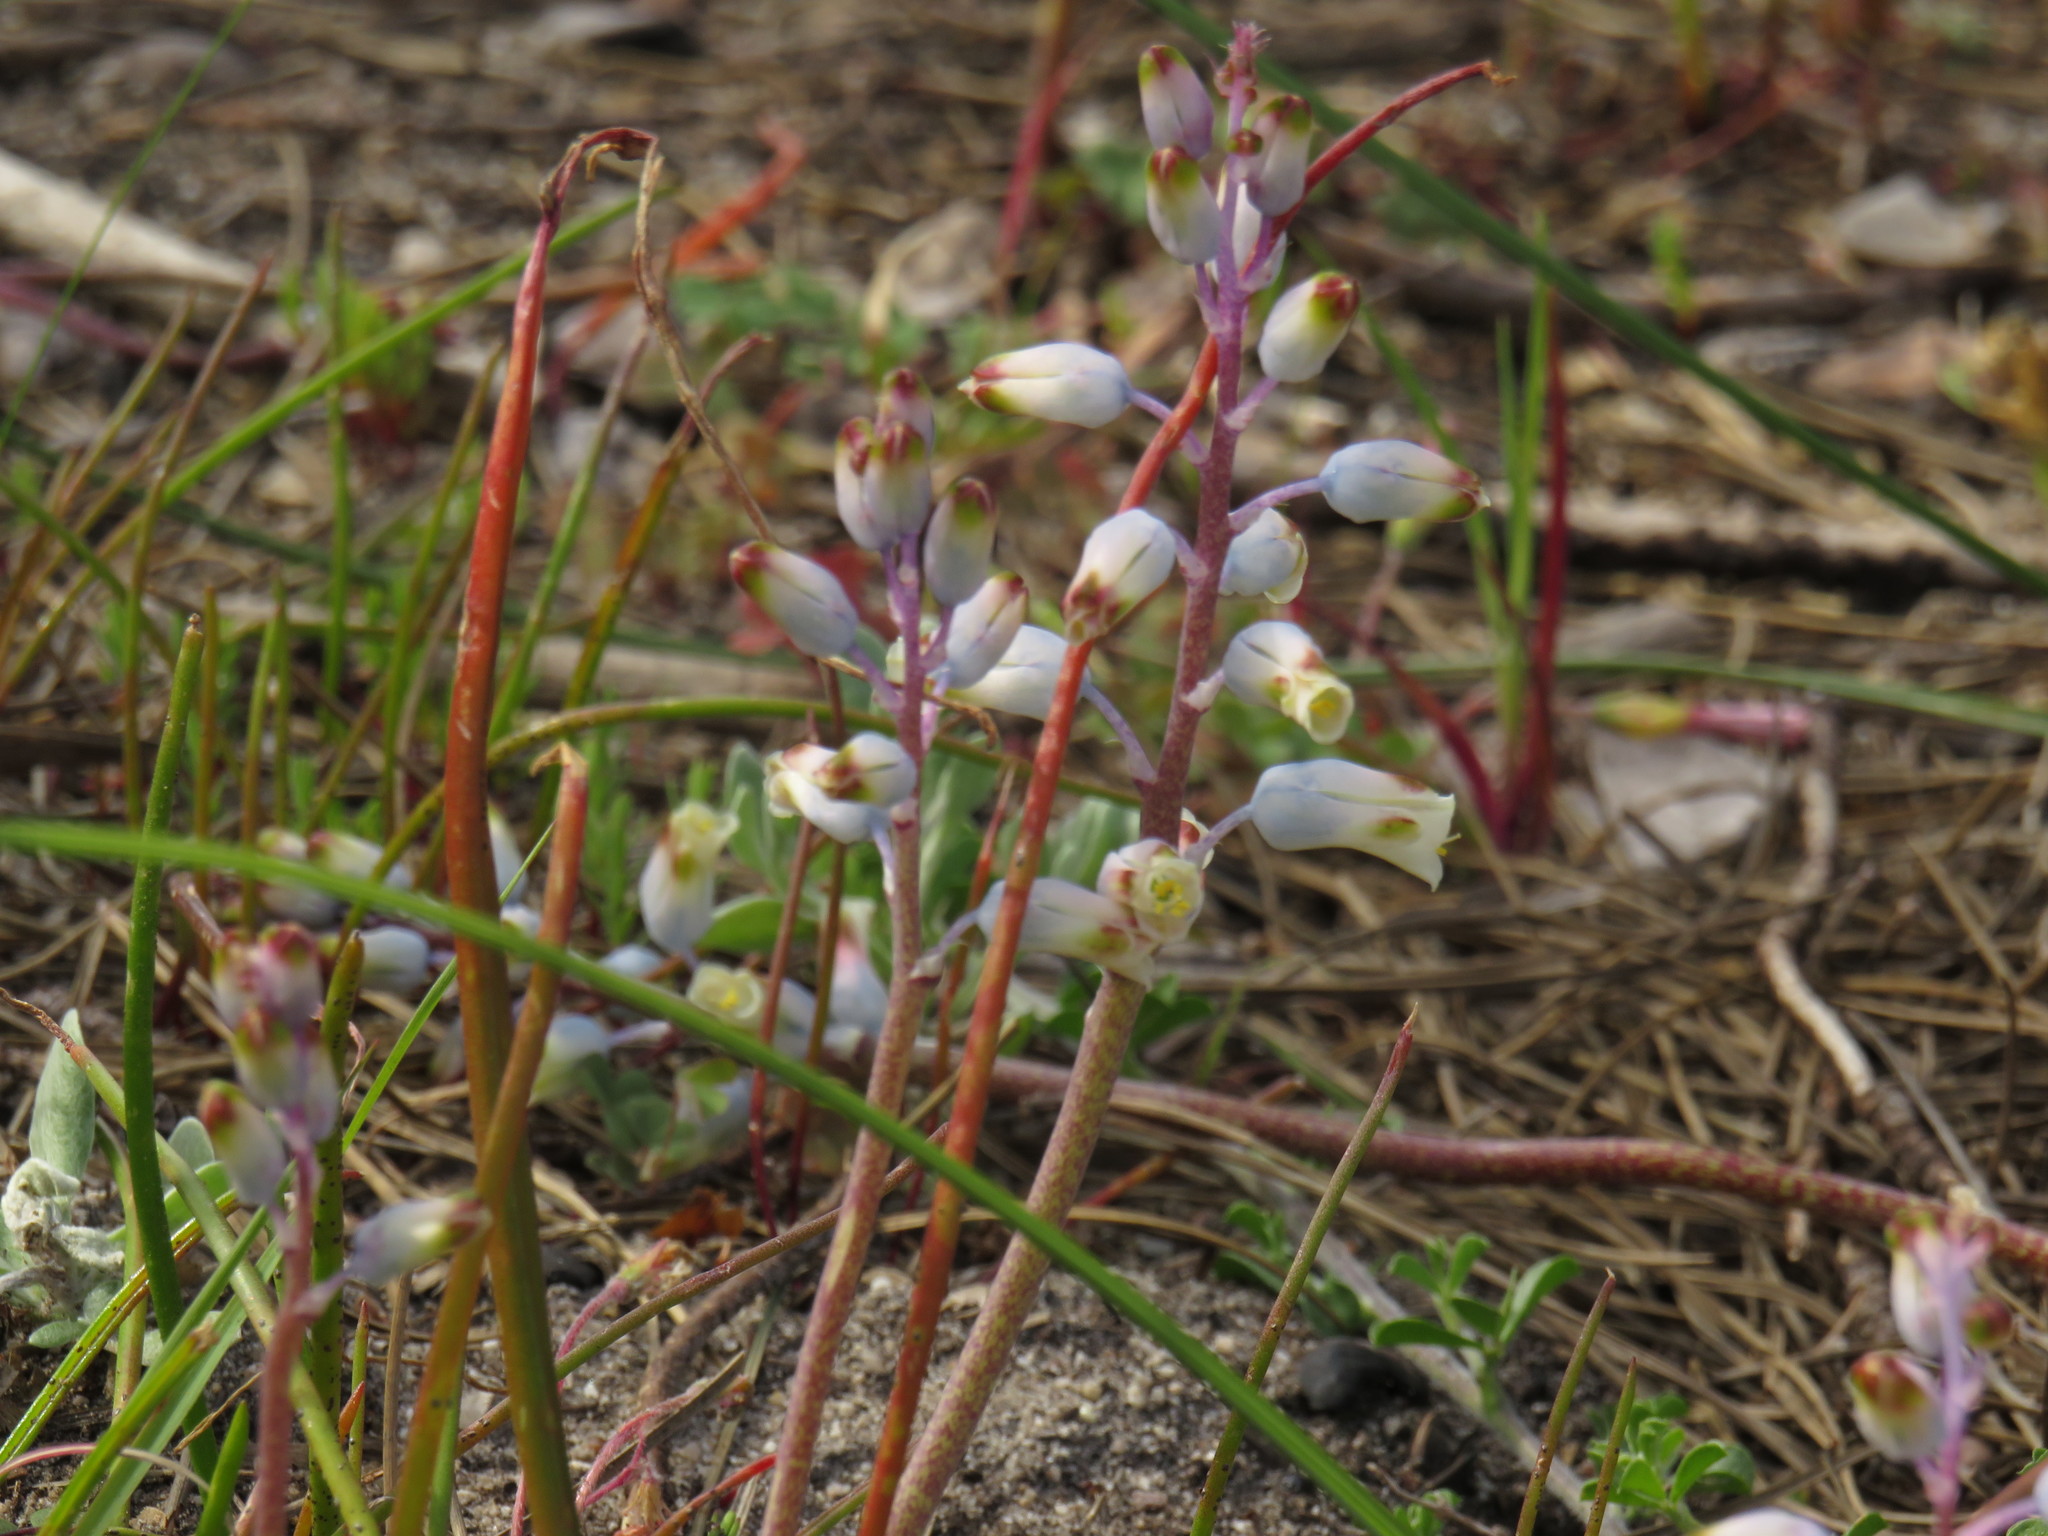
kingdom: Plantae
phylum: Tracheophyta
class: Liliopsida
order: Asparagales
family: Asparagaceae
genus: Lachenalia
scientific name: Lachenalia unifolia
